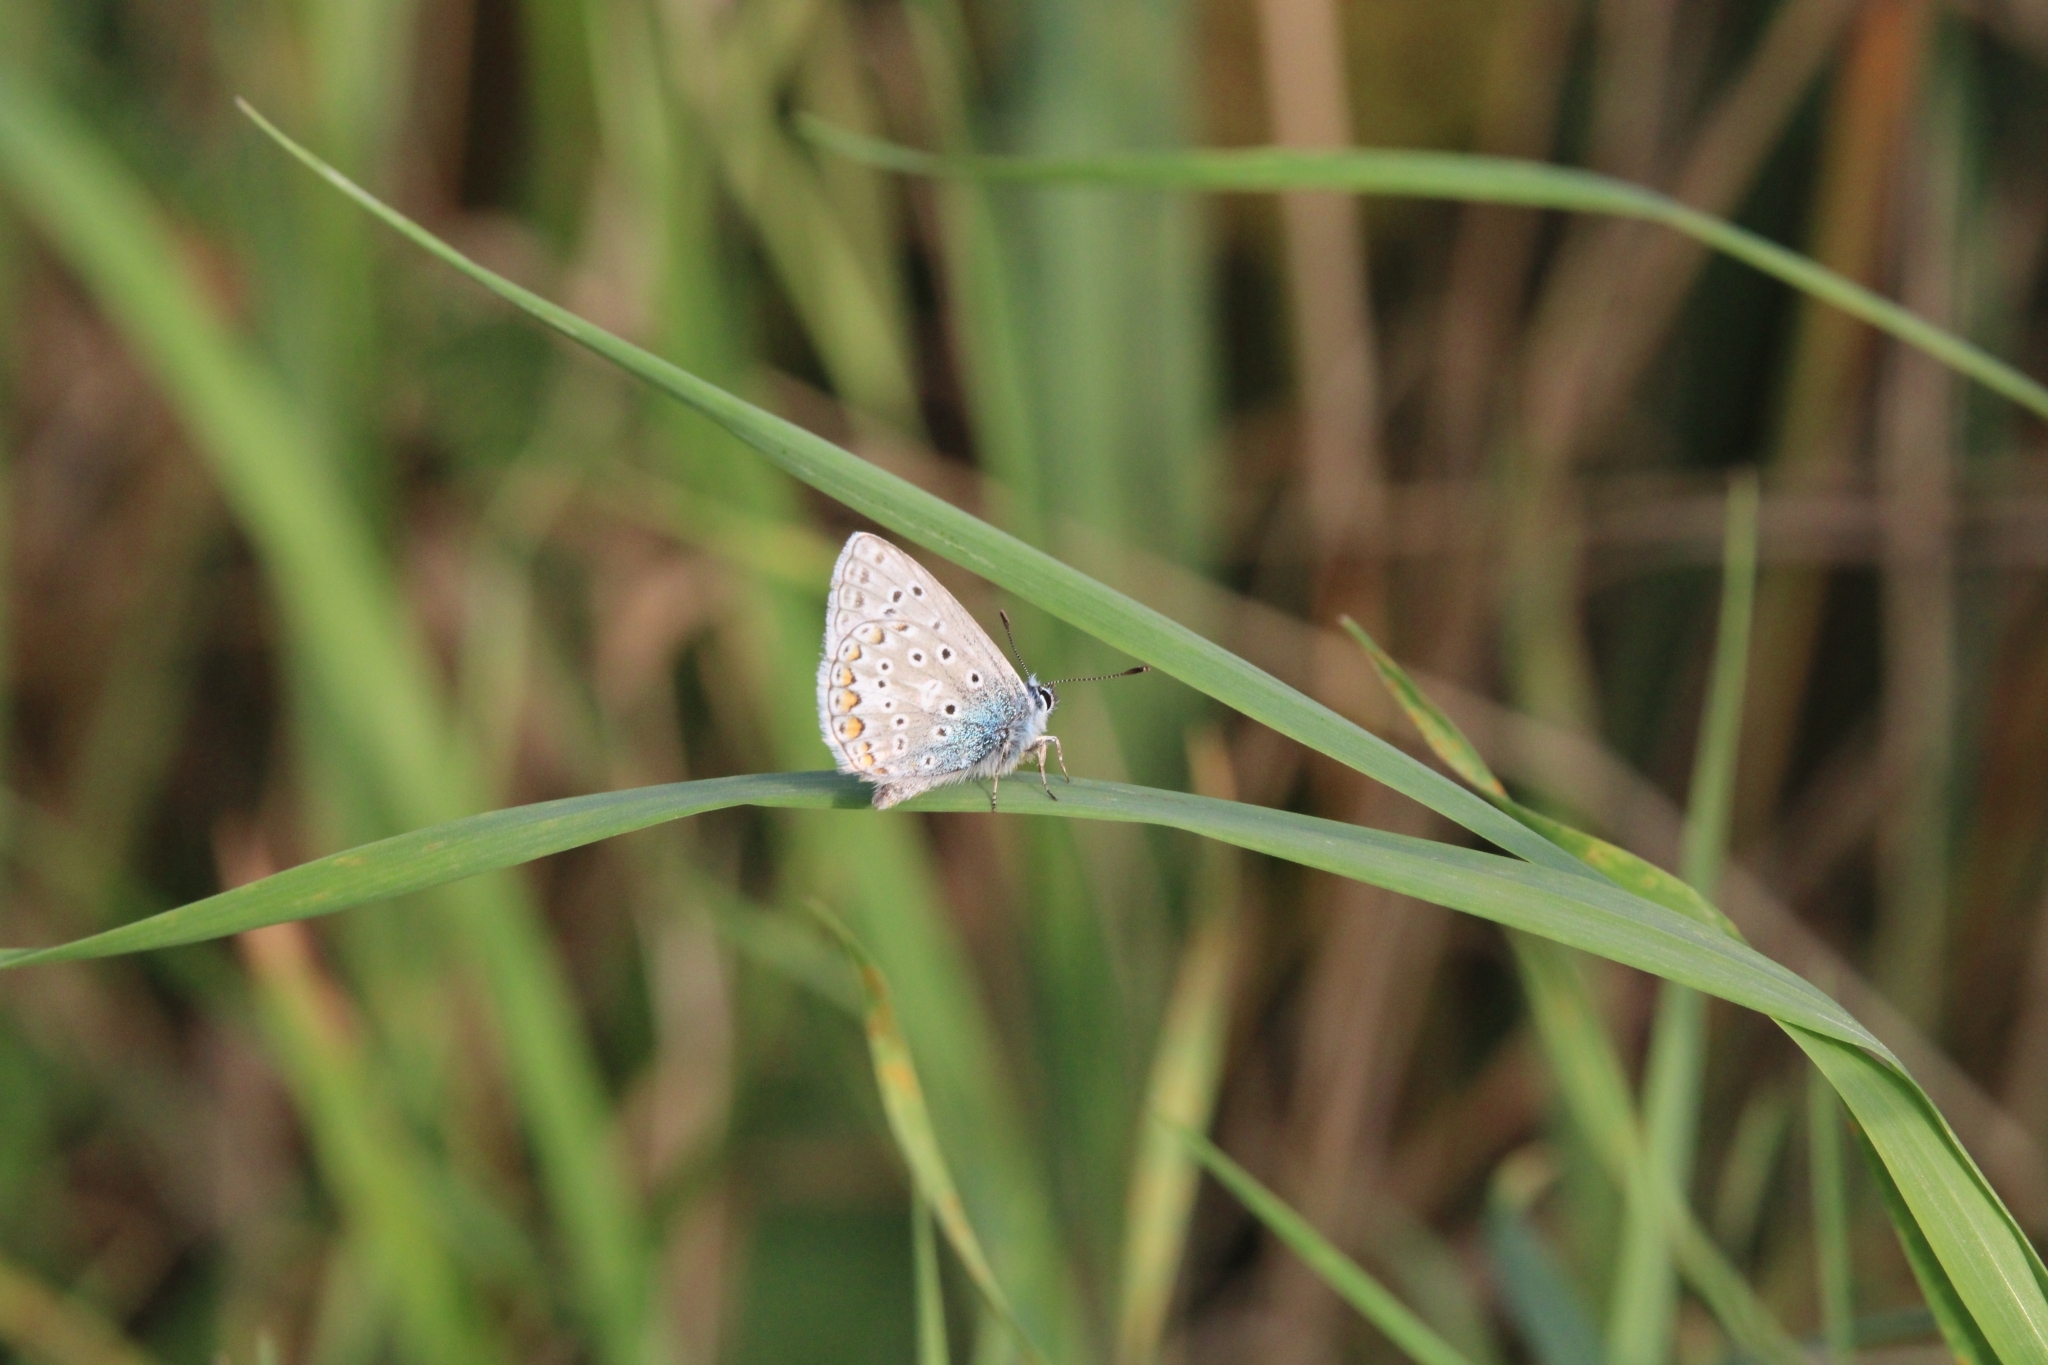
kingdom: Animalia
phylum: Arthropoda
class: Insecta
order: Lepidoptera
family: Lycaenidae
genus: Polyommatus
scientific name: Polyommatus icarus
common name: Common blue
